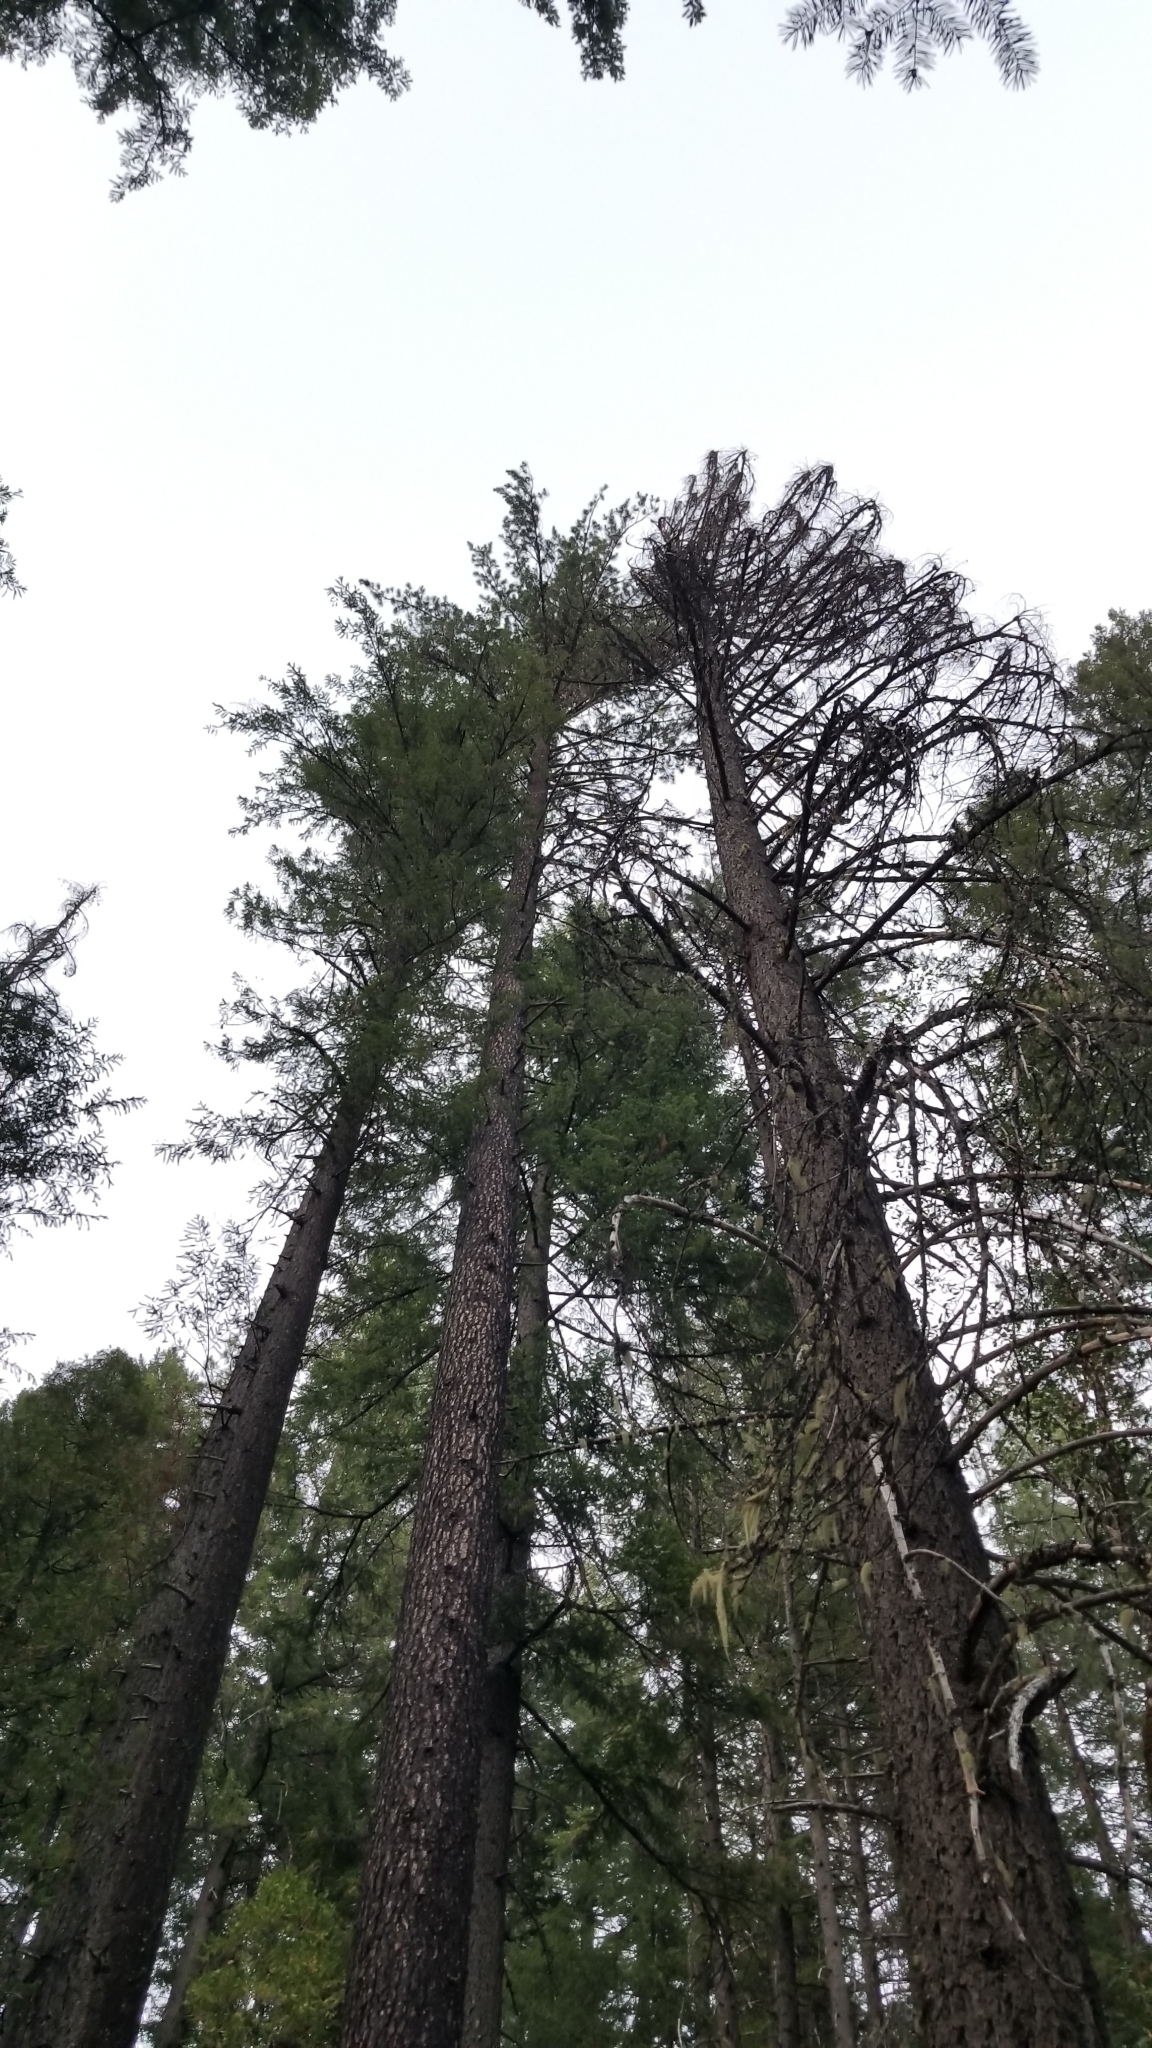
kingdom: Plantae
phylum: Tracheophyta
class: Pinopsida
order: Pinales
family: Pinaceae
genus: Pinus
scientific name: Pinus lambertiana
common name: Sugar pine
